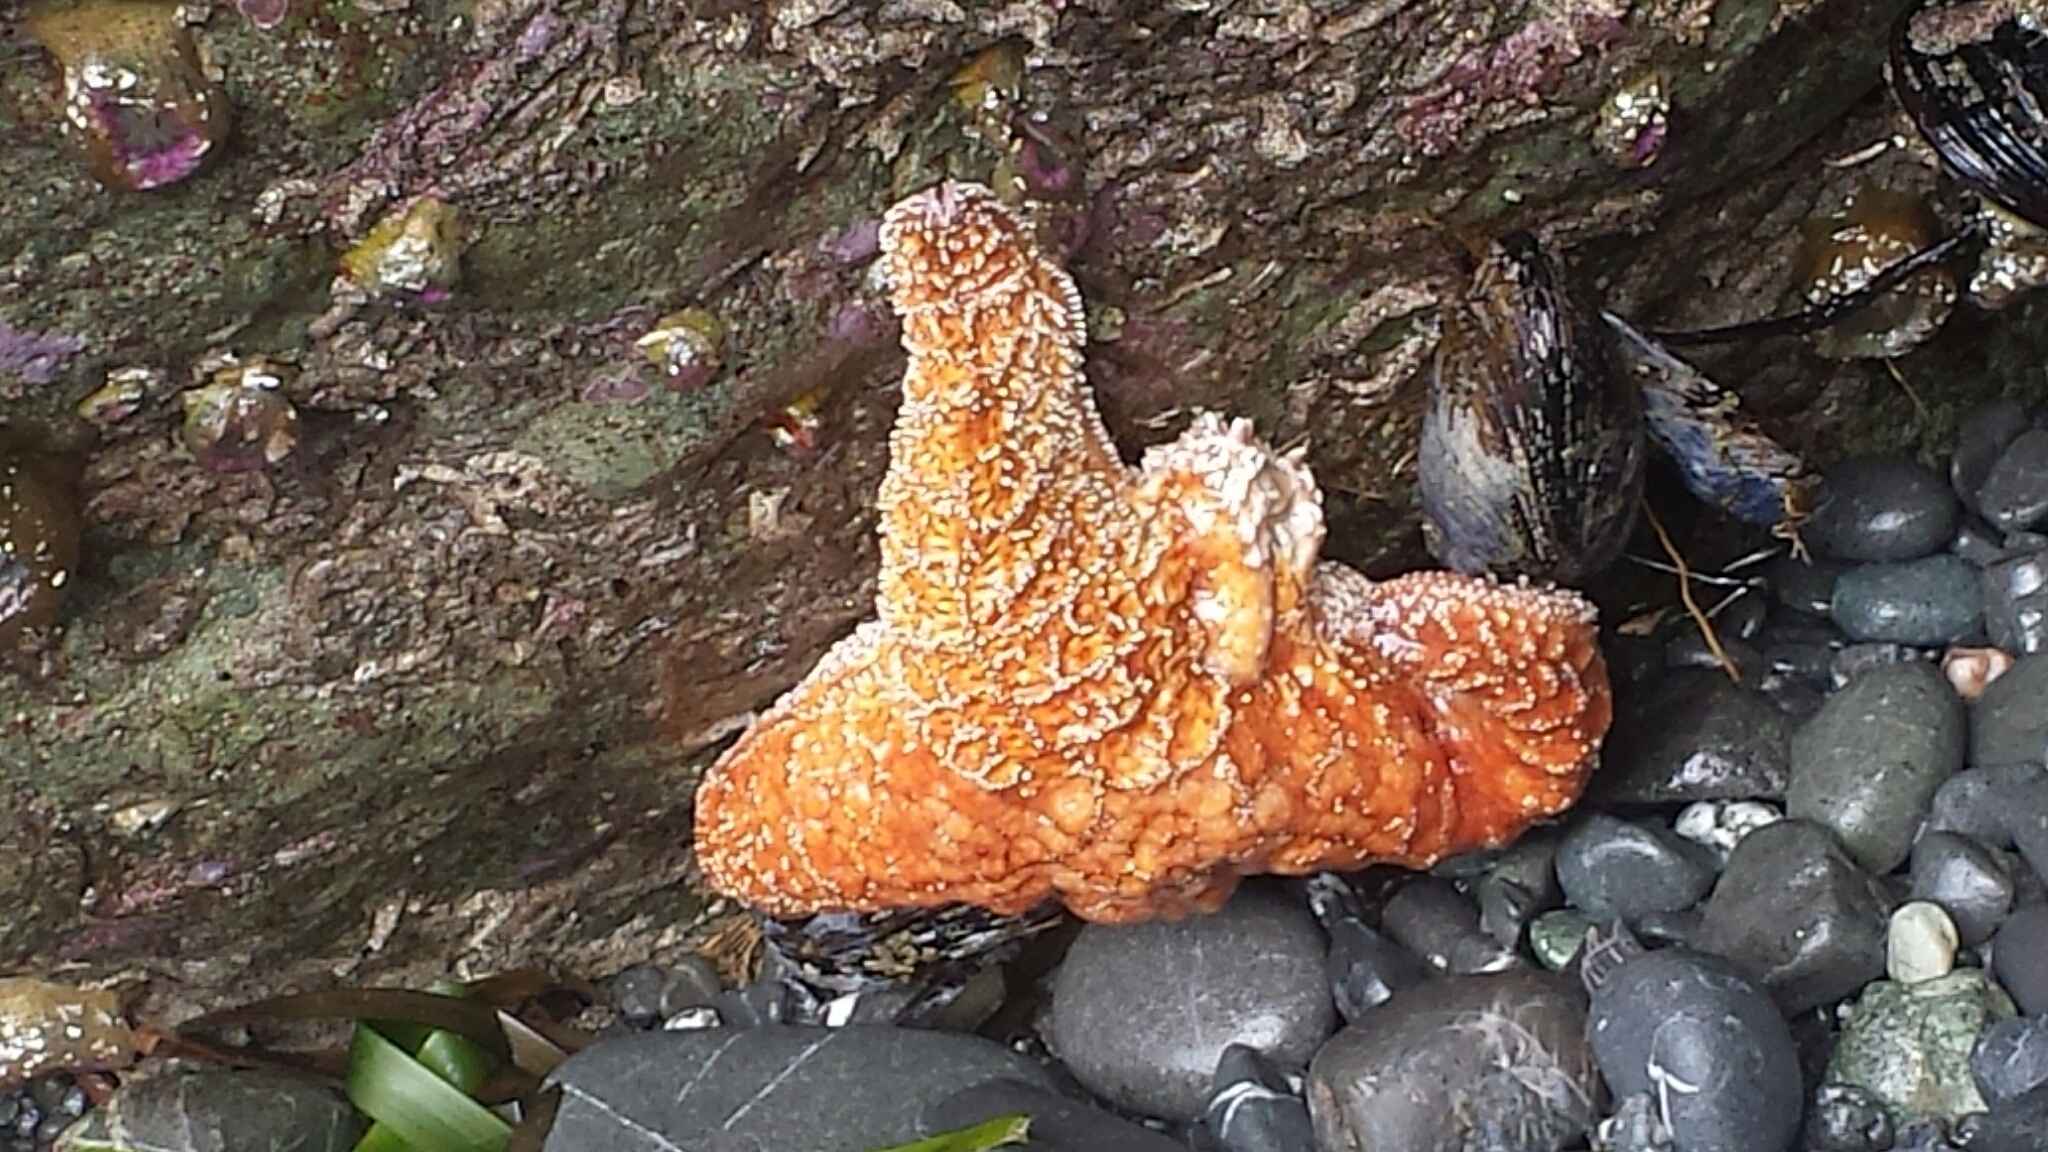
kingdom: Animalia
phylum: Echinodermata
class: Asteroidea
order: Forcipulatida
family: Asteriidae
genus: Pisaster
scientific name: Pisaster ochraceus
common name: Ochre stars
